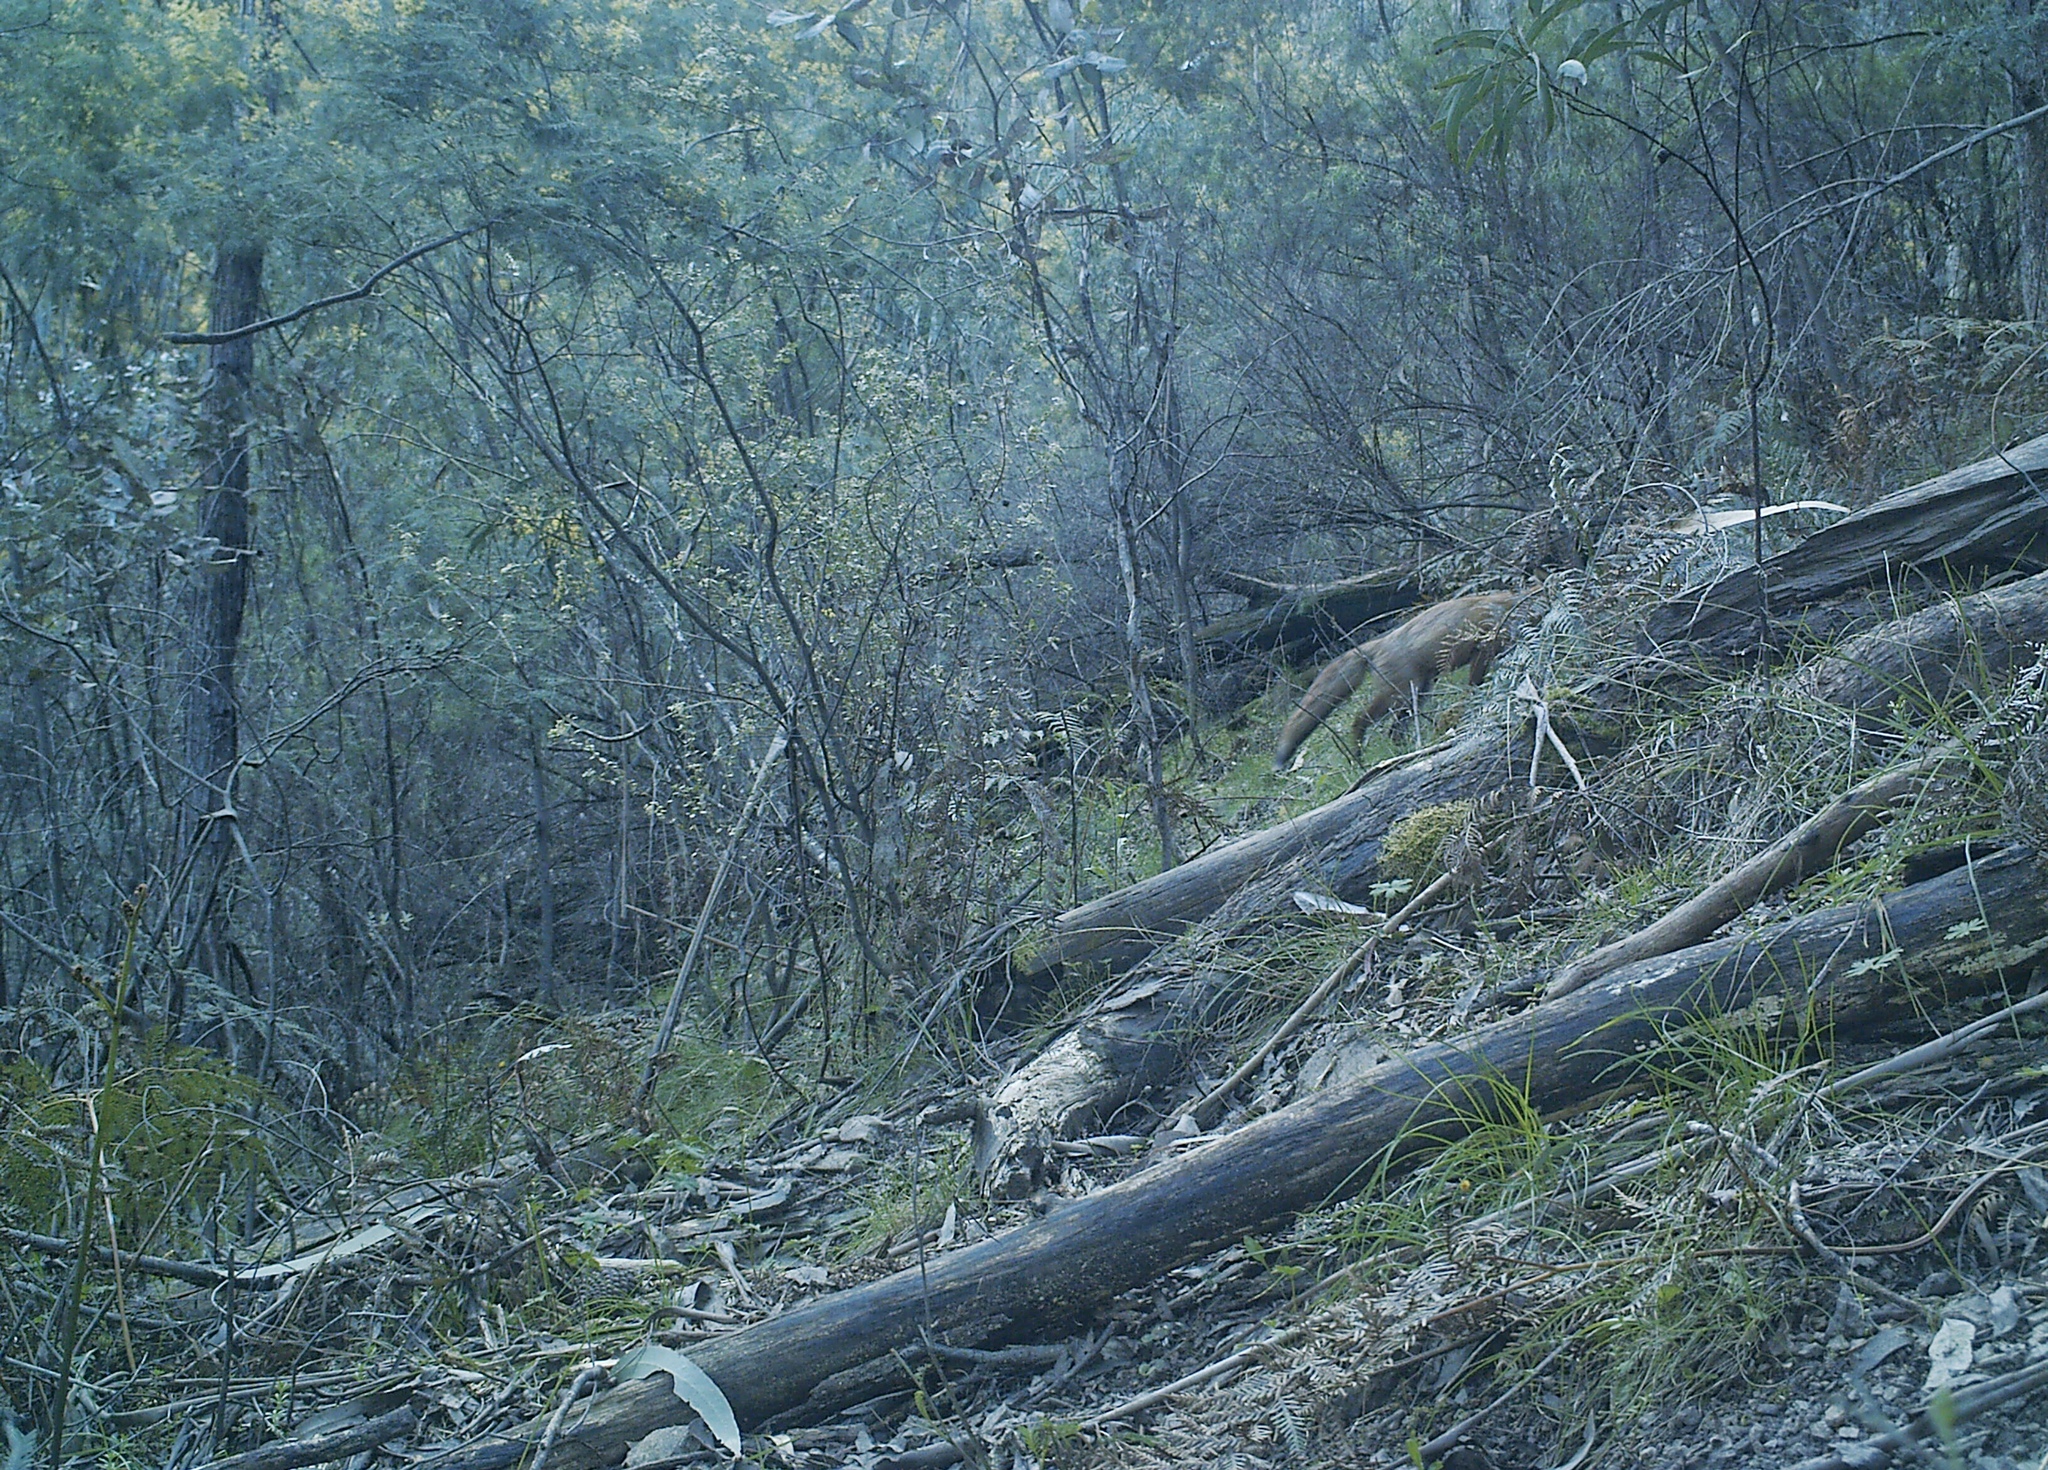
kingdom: Animalia
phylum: Chordata
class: Mammalia
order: Carnivora
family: Canidae
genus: Vulpes
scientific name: Vulpes vulpes
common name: Red fox
